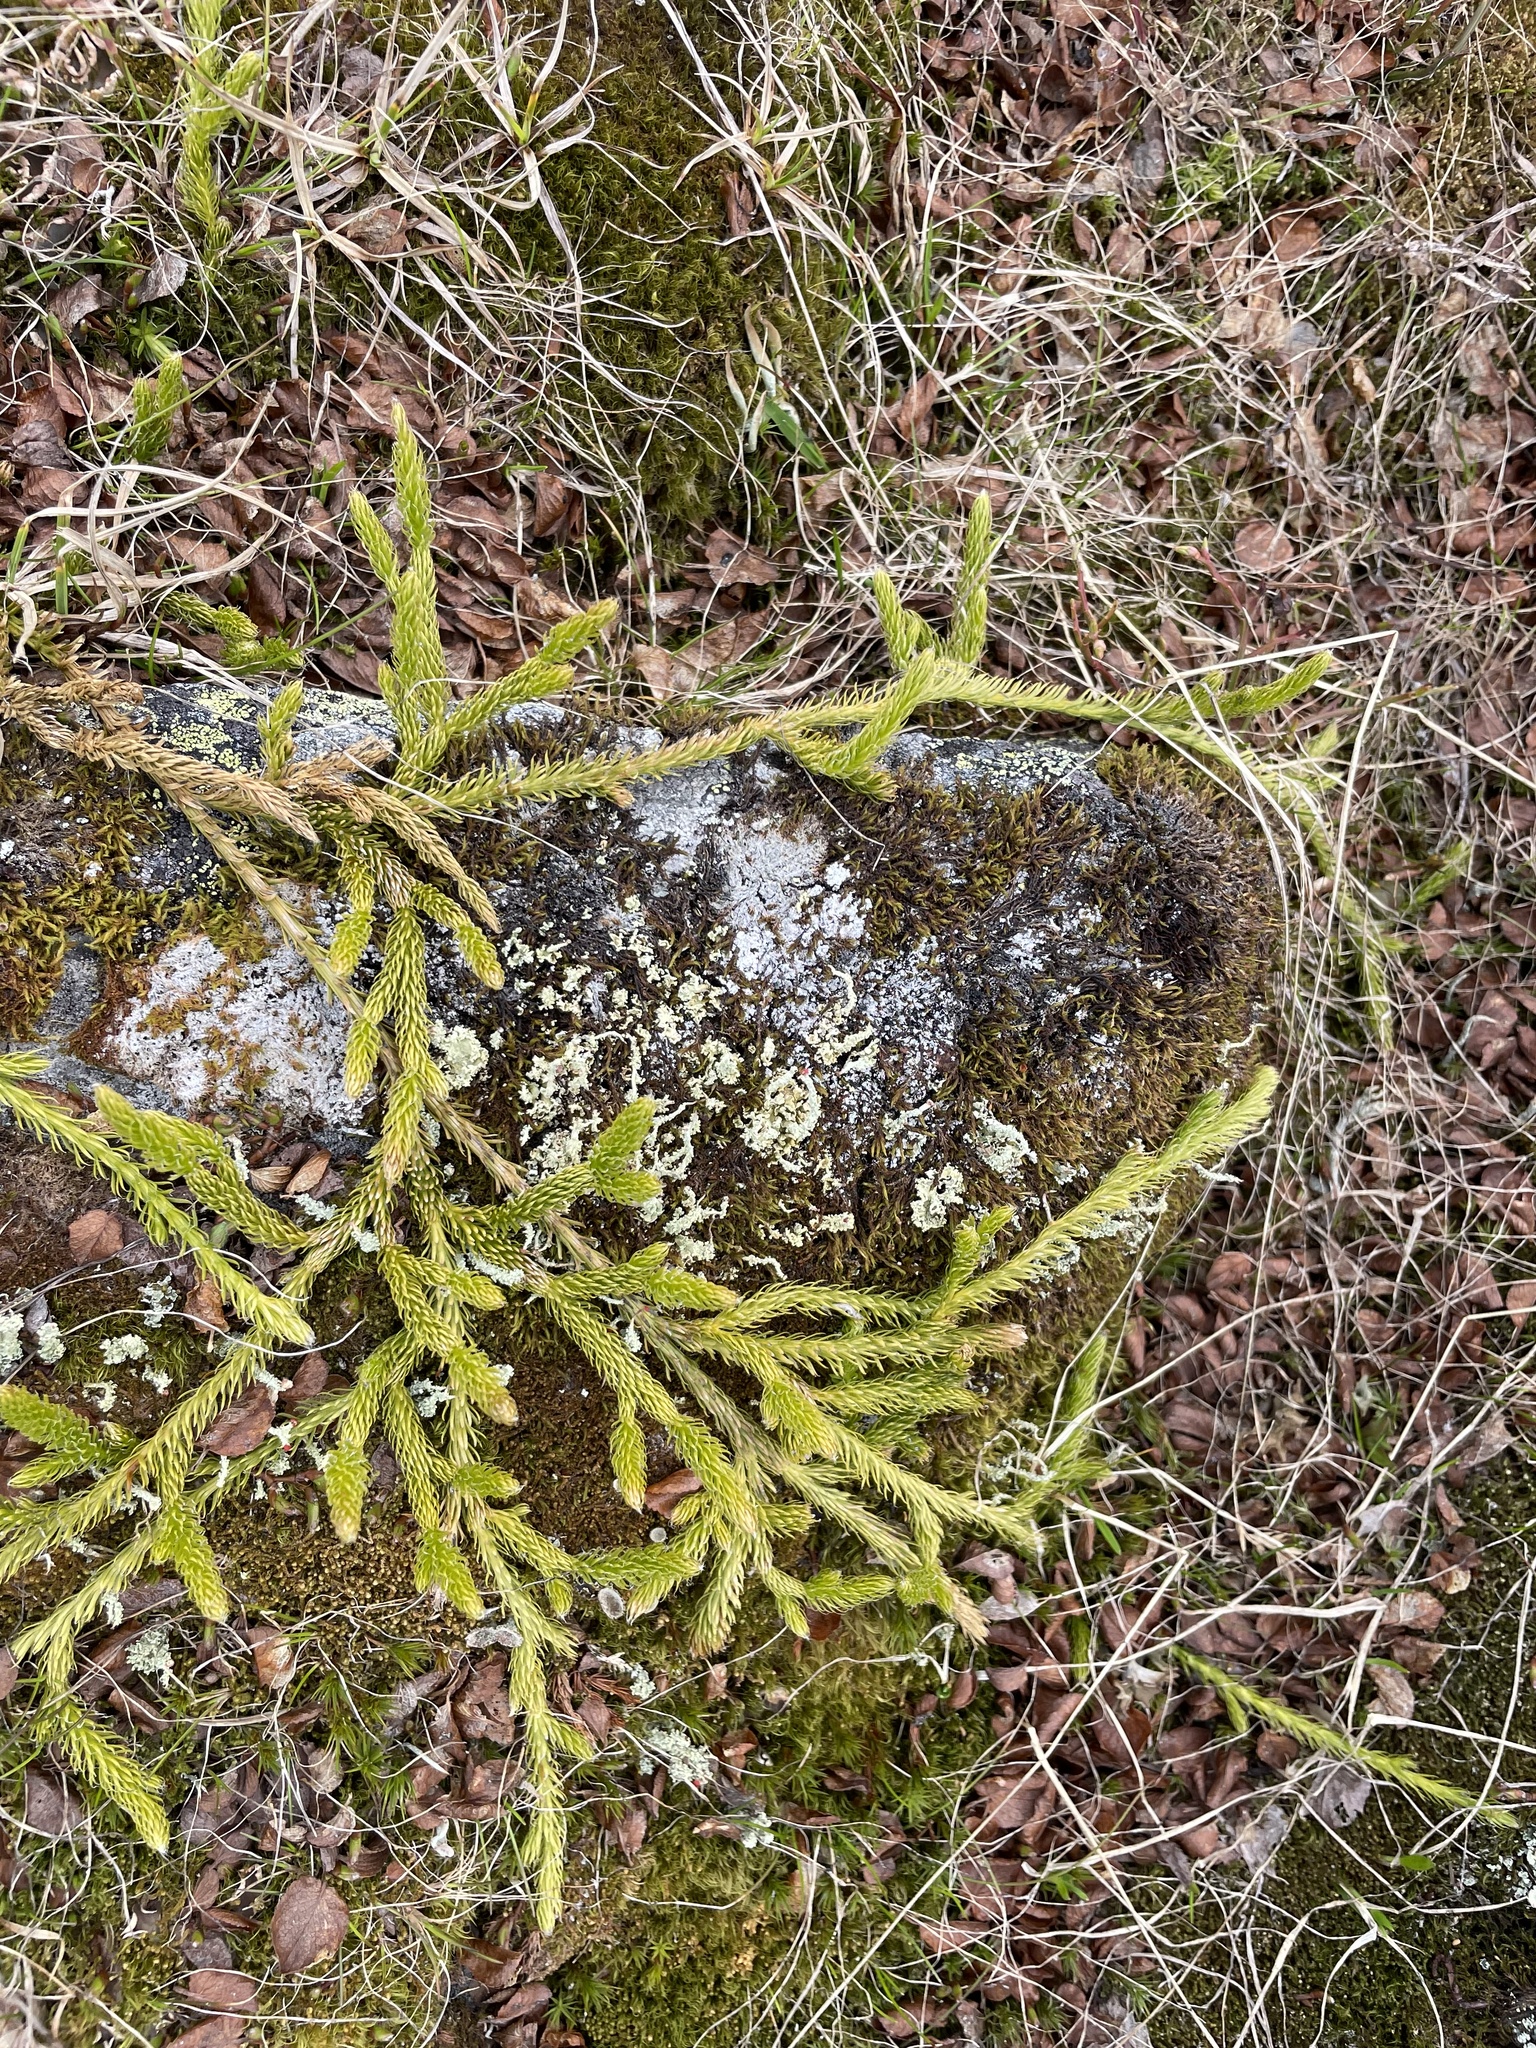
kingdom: Plantae
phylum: Tracheophyta
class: Lycopodiopsida
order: Lycopodiales
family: Lycopodiaceae
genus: Lycopodium
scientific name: Lycopodium lagopus
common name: One-cone clubmoss
